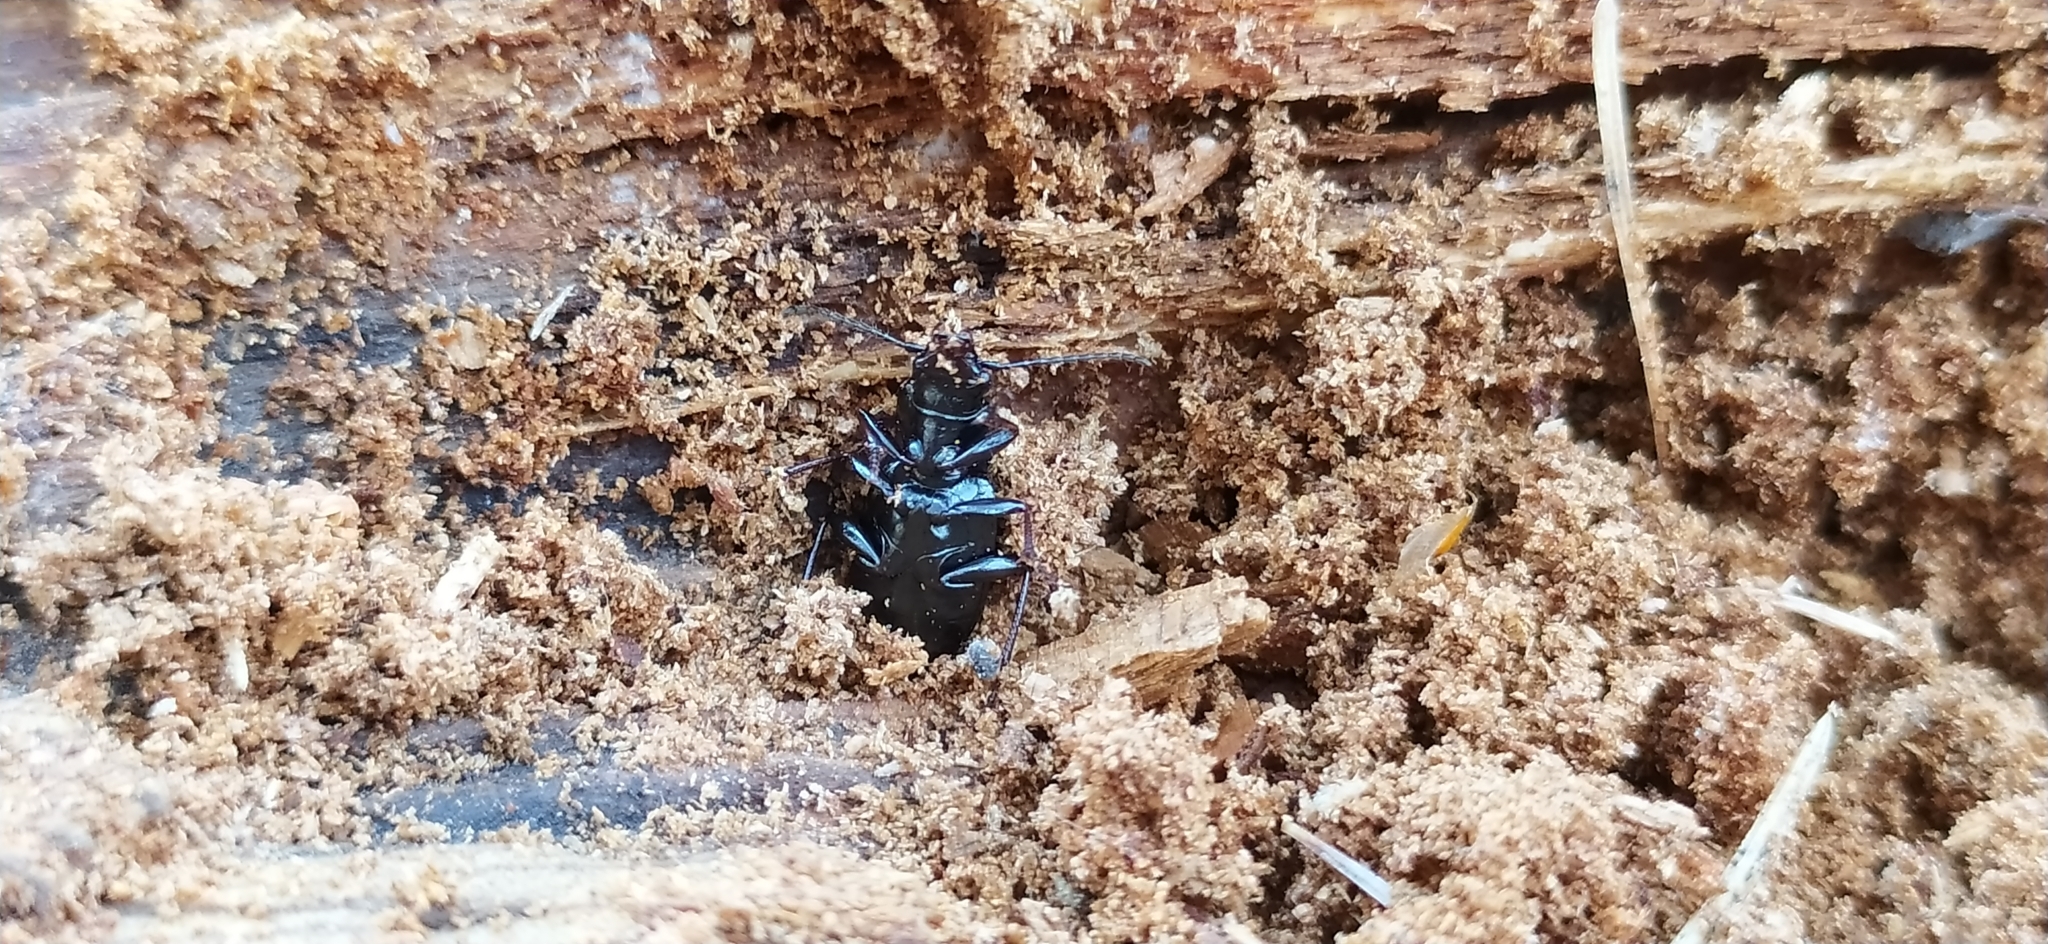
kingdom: Animalia
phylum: Arthropoda
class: Insecta
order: Coleoptera
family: Carabidae
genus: Pterostichus
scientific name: Pterostichus oblongopunctatus
